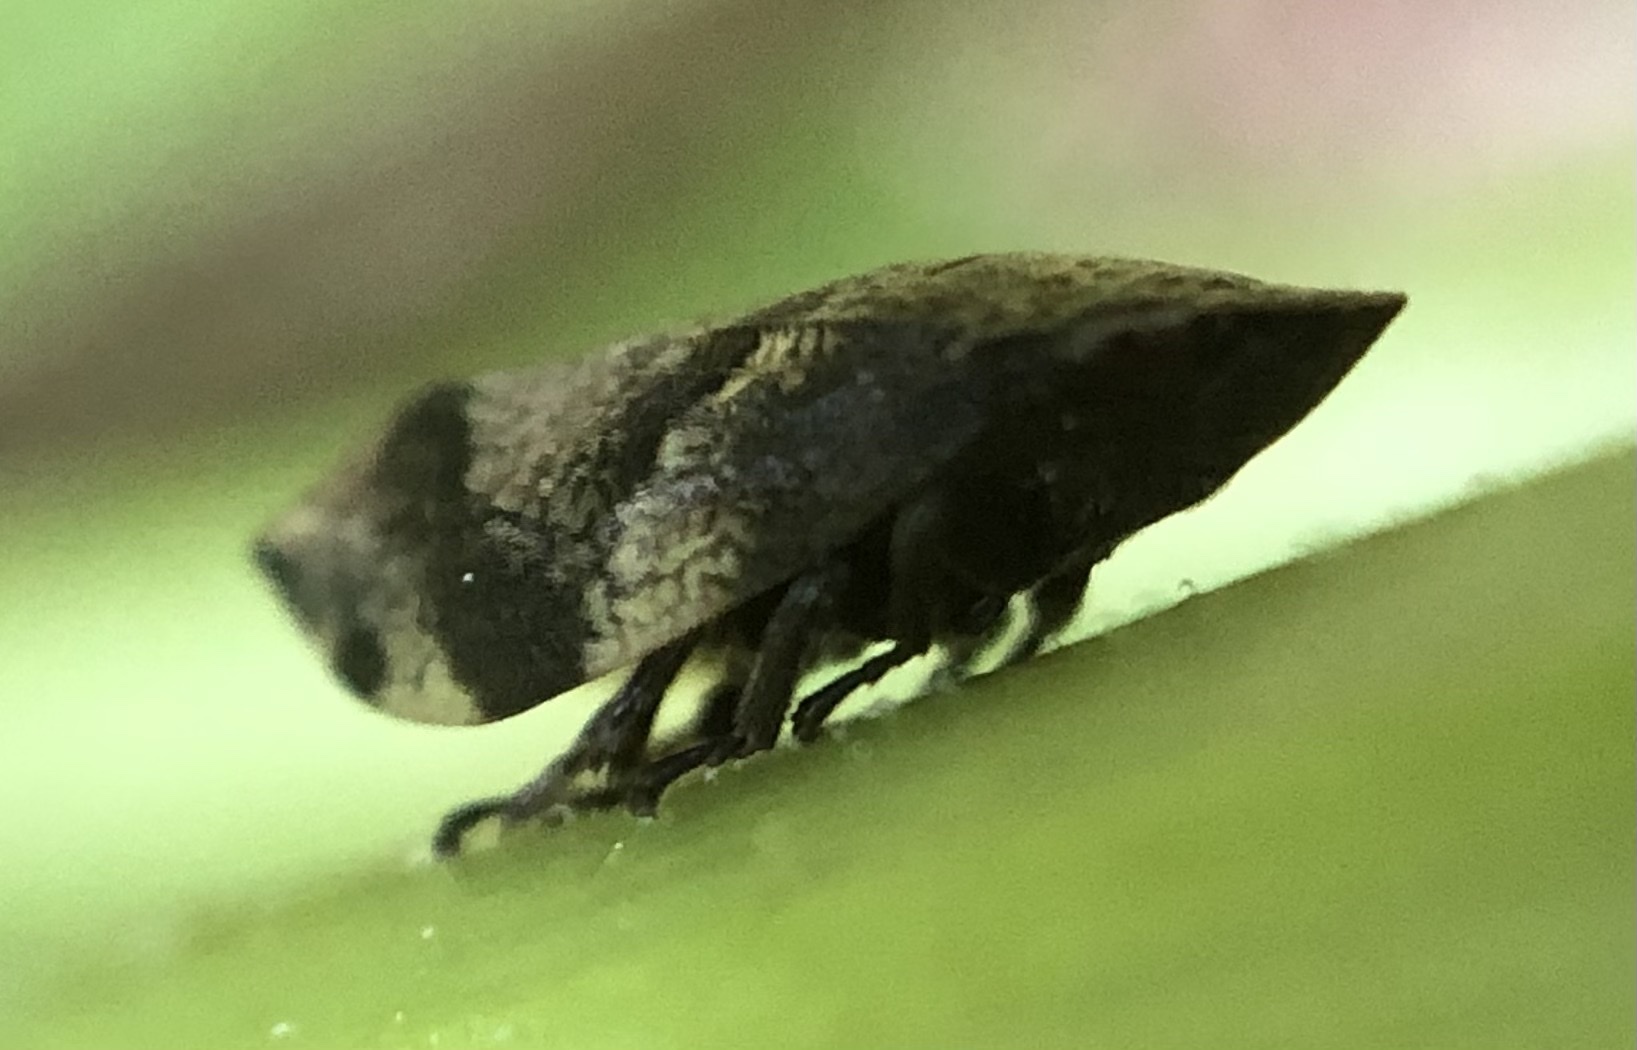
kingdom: Animalia
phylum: Arthropoda
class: Insecta
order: Hemiptera
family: Aphrophoridae
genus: Lepyronia
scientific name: Lepyronia quadrangularis
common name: Diamond-backed spittlebug
